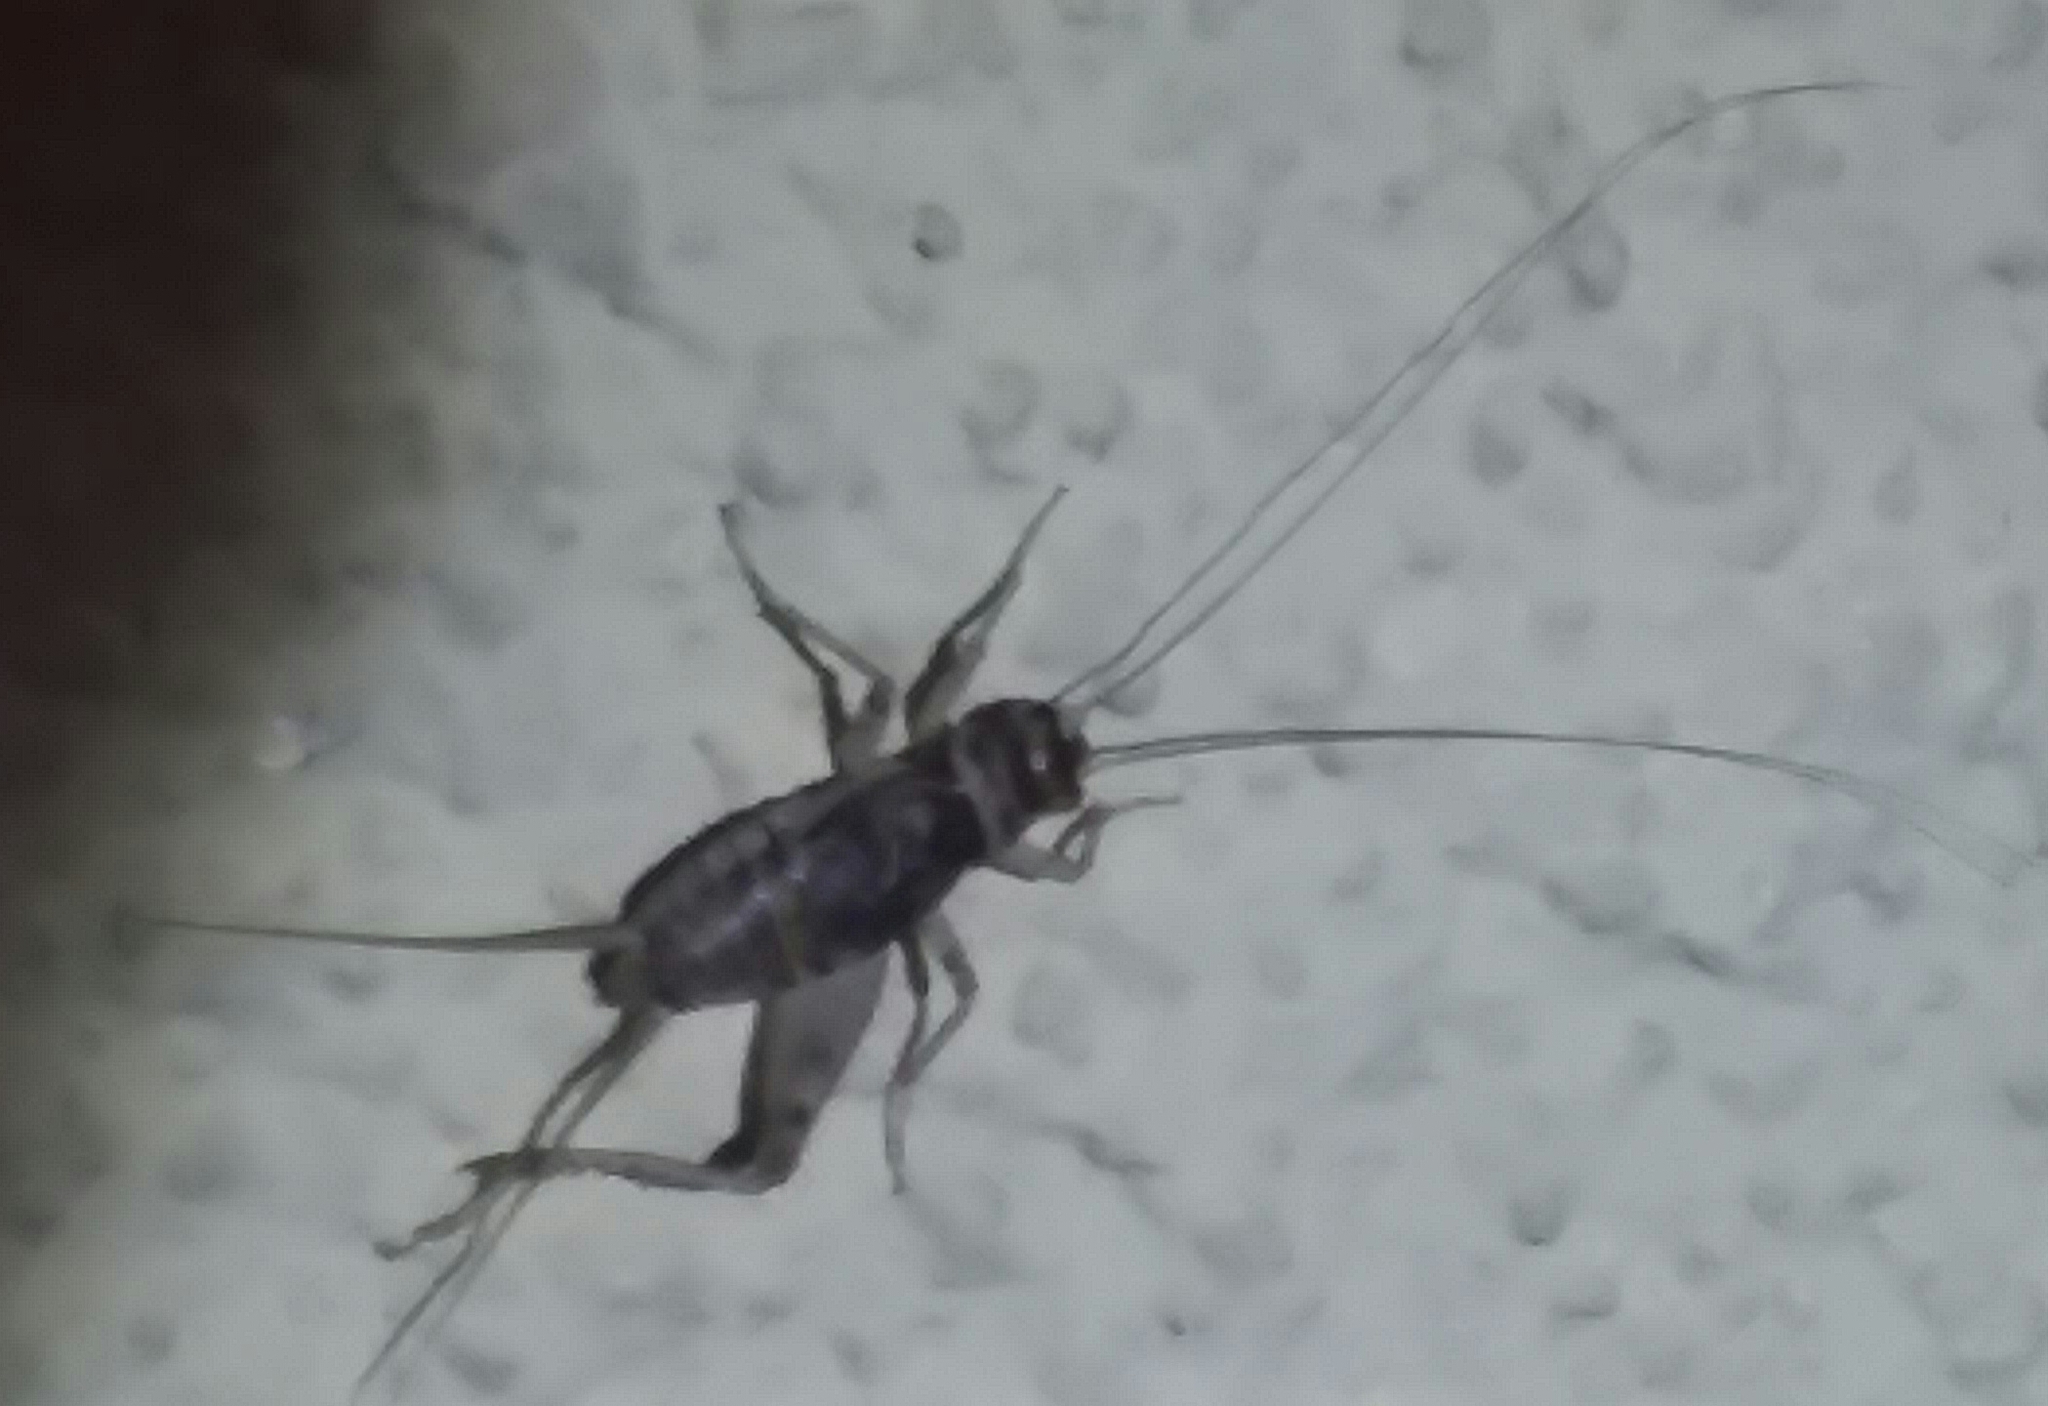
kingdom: Animalia
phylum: Arthropoda
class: Insecta
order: Orthoptera
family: Gryllidae
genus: Gryllodes
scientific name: Gryllodes sigillatus
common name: Tropical house cricket
